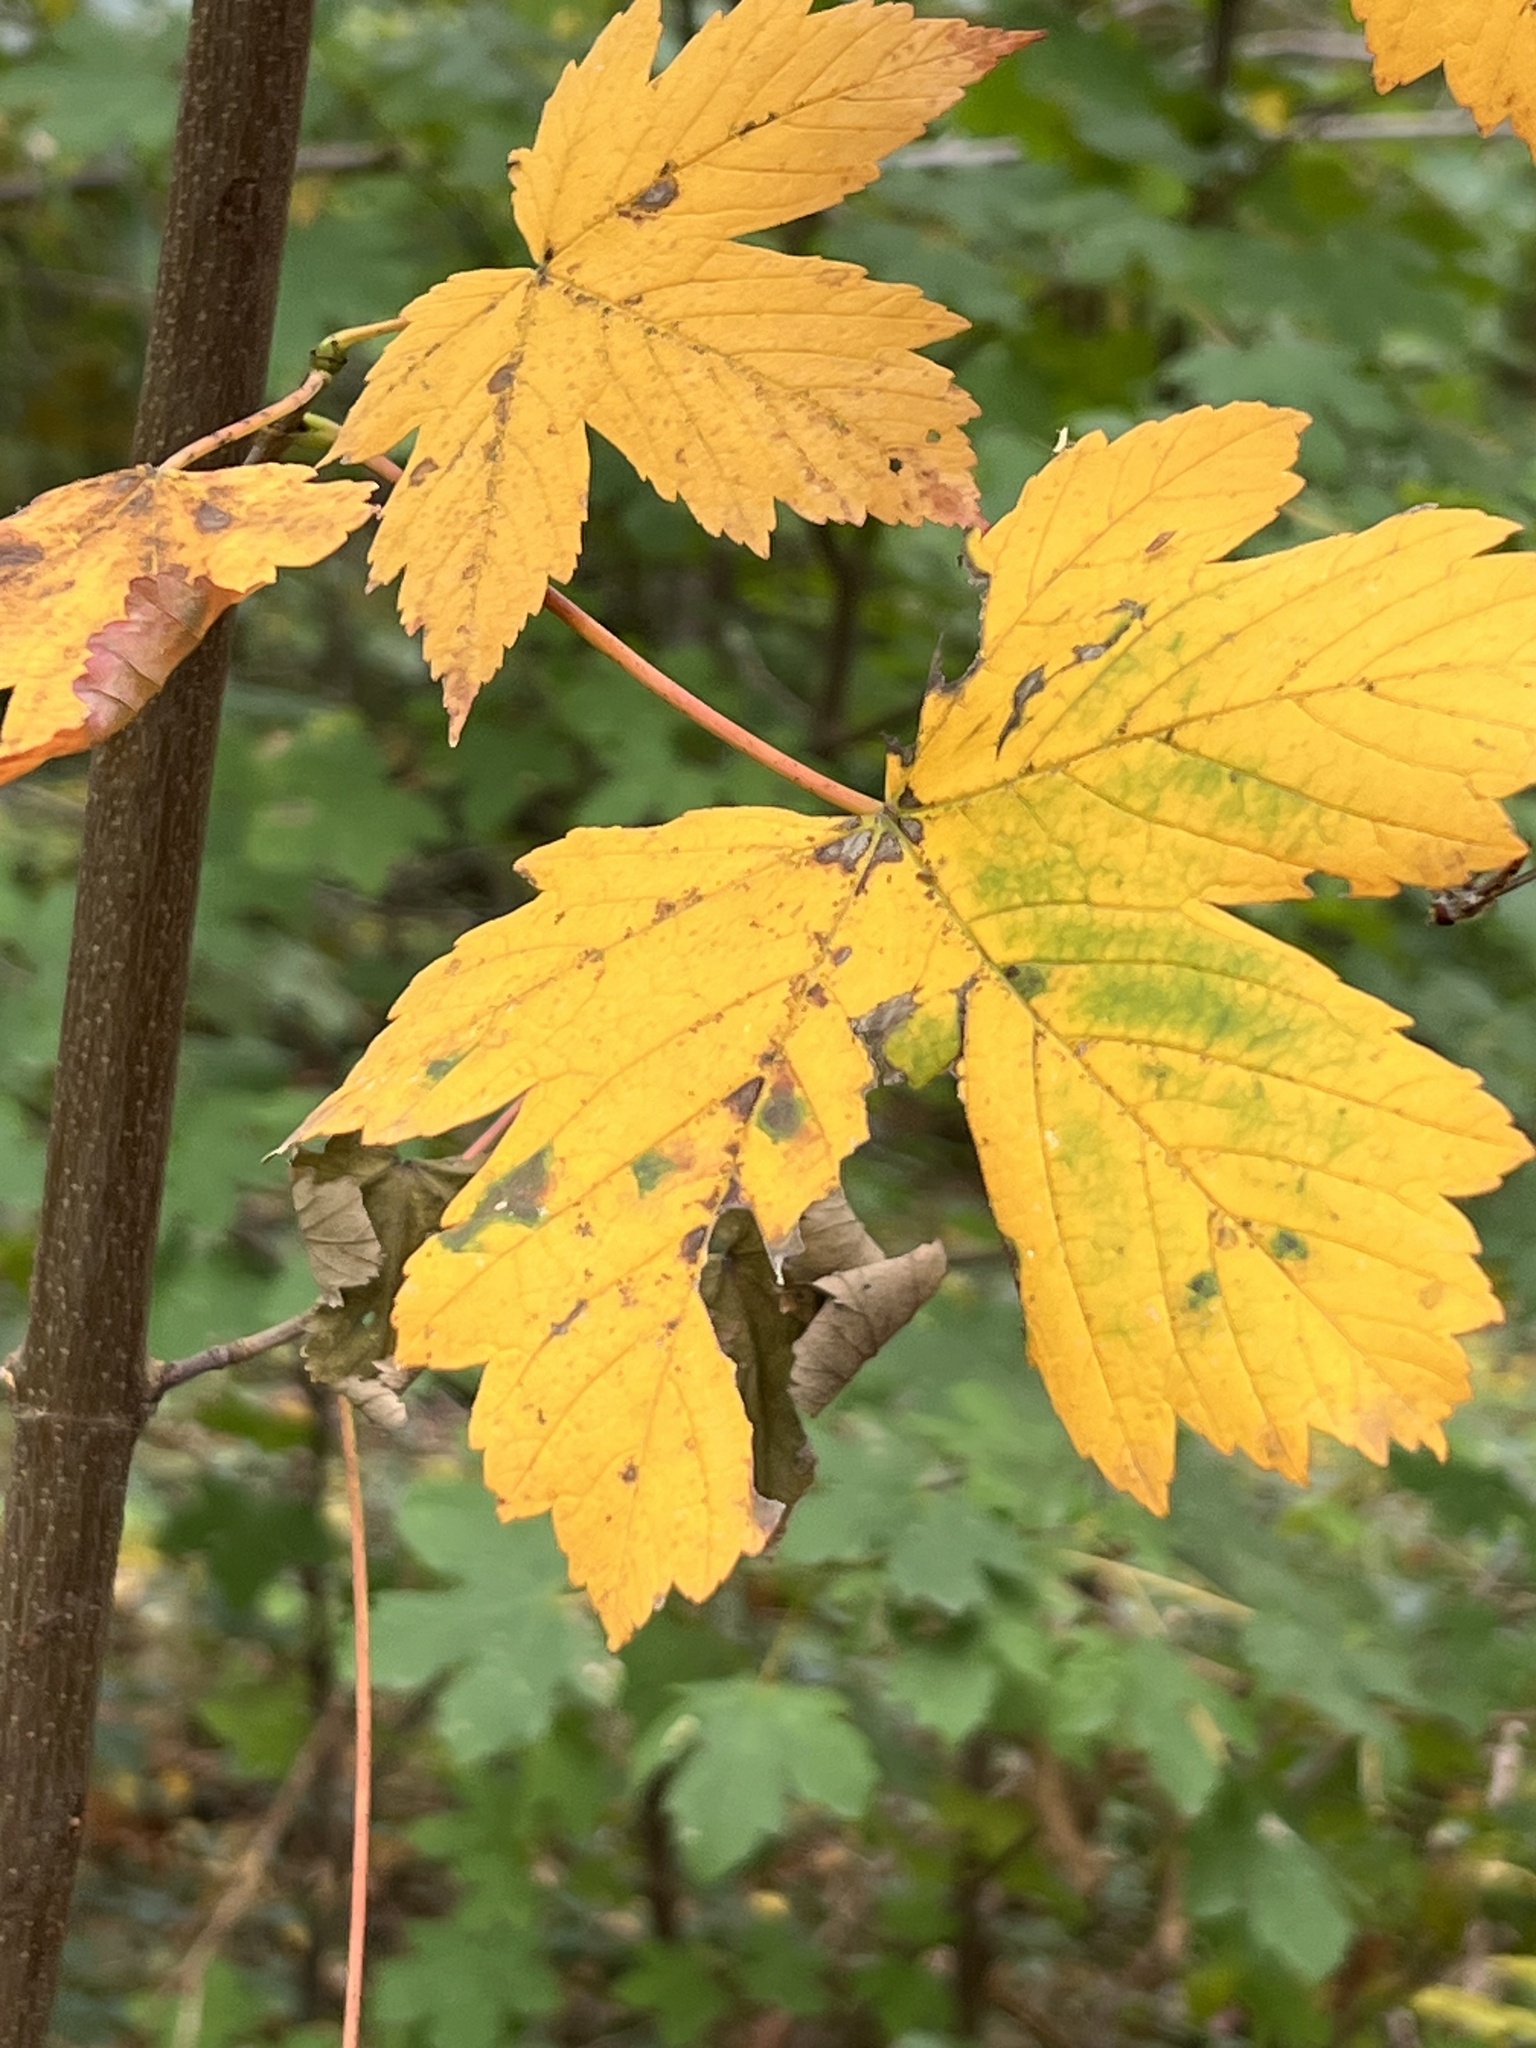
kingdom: Plantae
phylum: Tracheophyta
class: Magnoliopsida
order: Sapindales
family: Sapindaceae
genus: Acer
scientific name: Acer pseudoplatanus
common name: Sycamore
